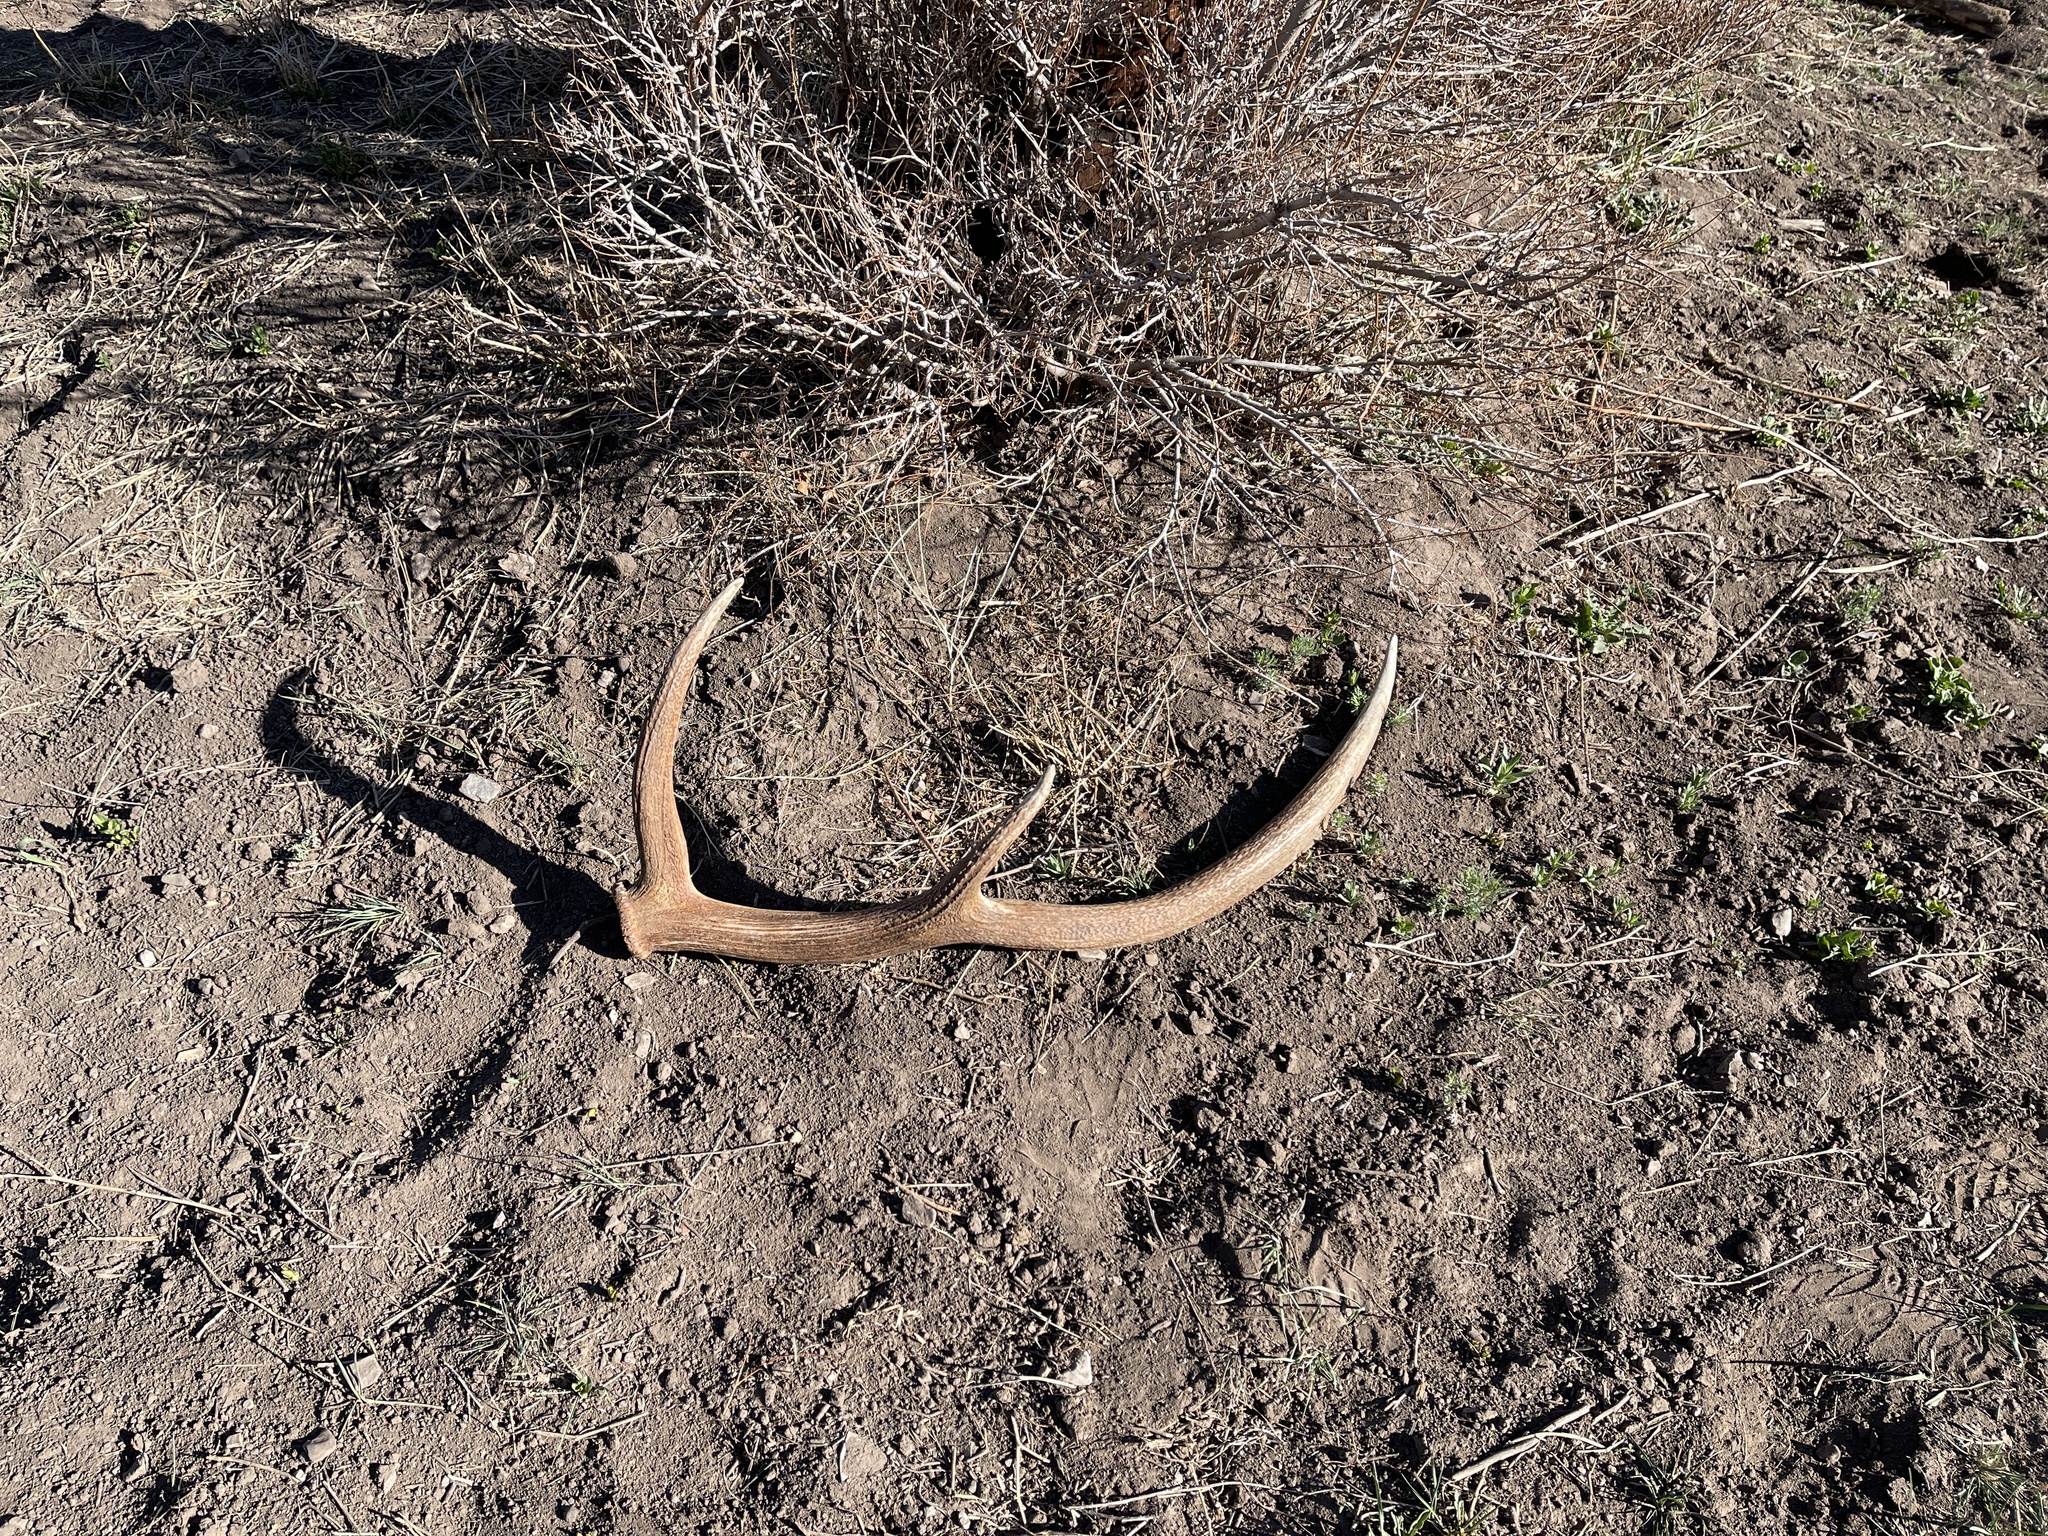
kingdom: Animalia
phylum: Chordata
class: Mammalia
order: Artiodactyla
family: Cervidae
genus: Cervus
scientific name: Cervus elaphus
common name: Red deer
